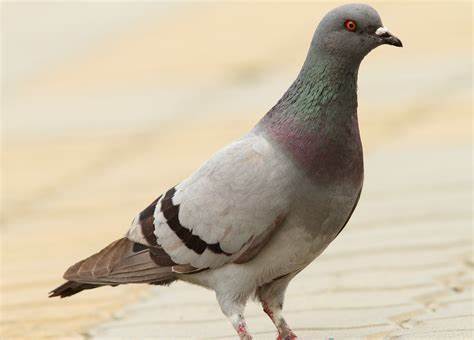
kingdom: Animalia
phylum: Chordata
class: Aves
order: Columbiformes
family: Columbidae
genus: Columba
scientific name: Columba livia
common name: Rock pigeon
